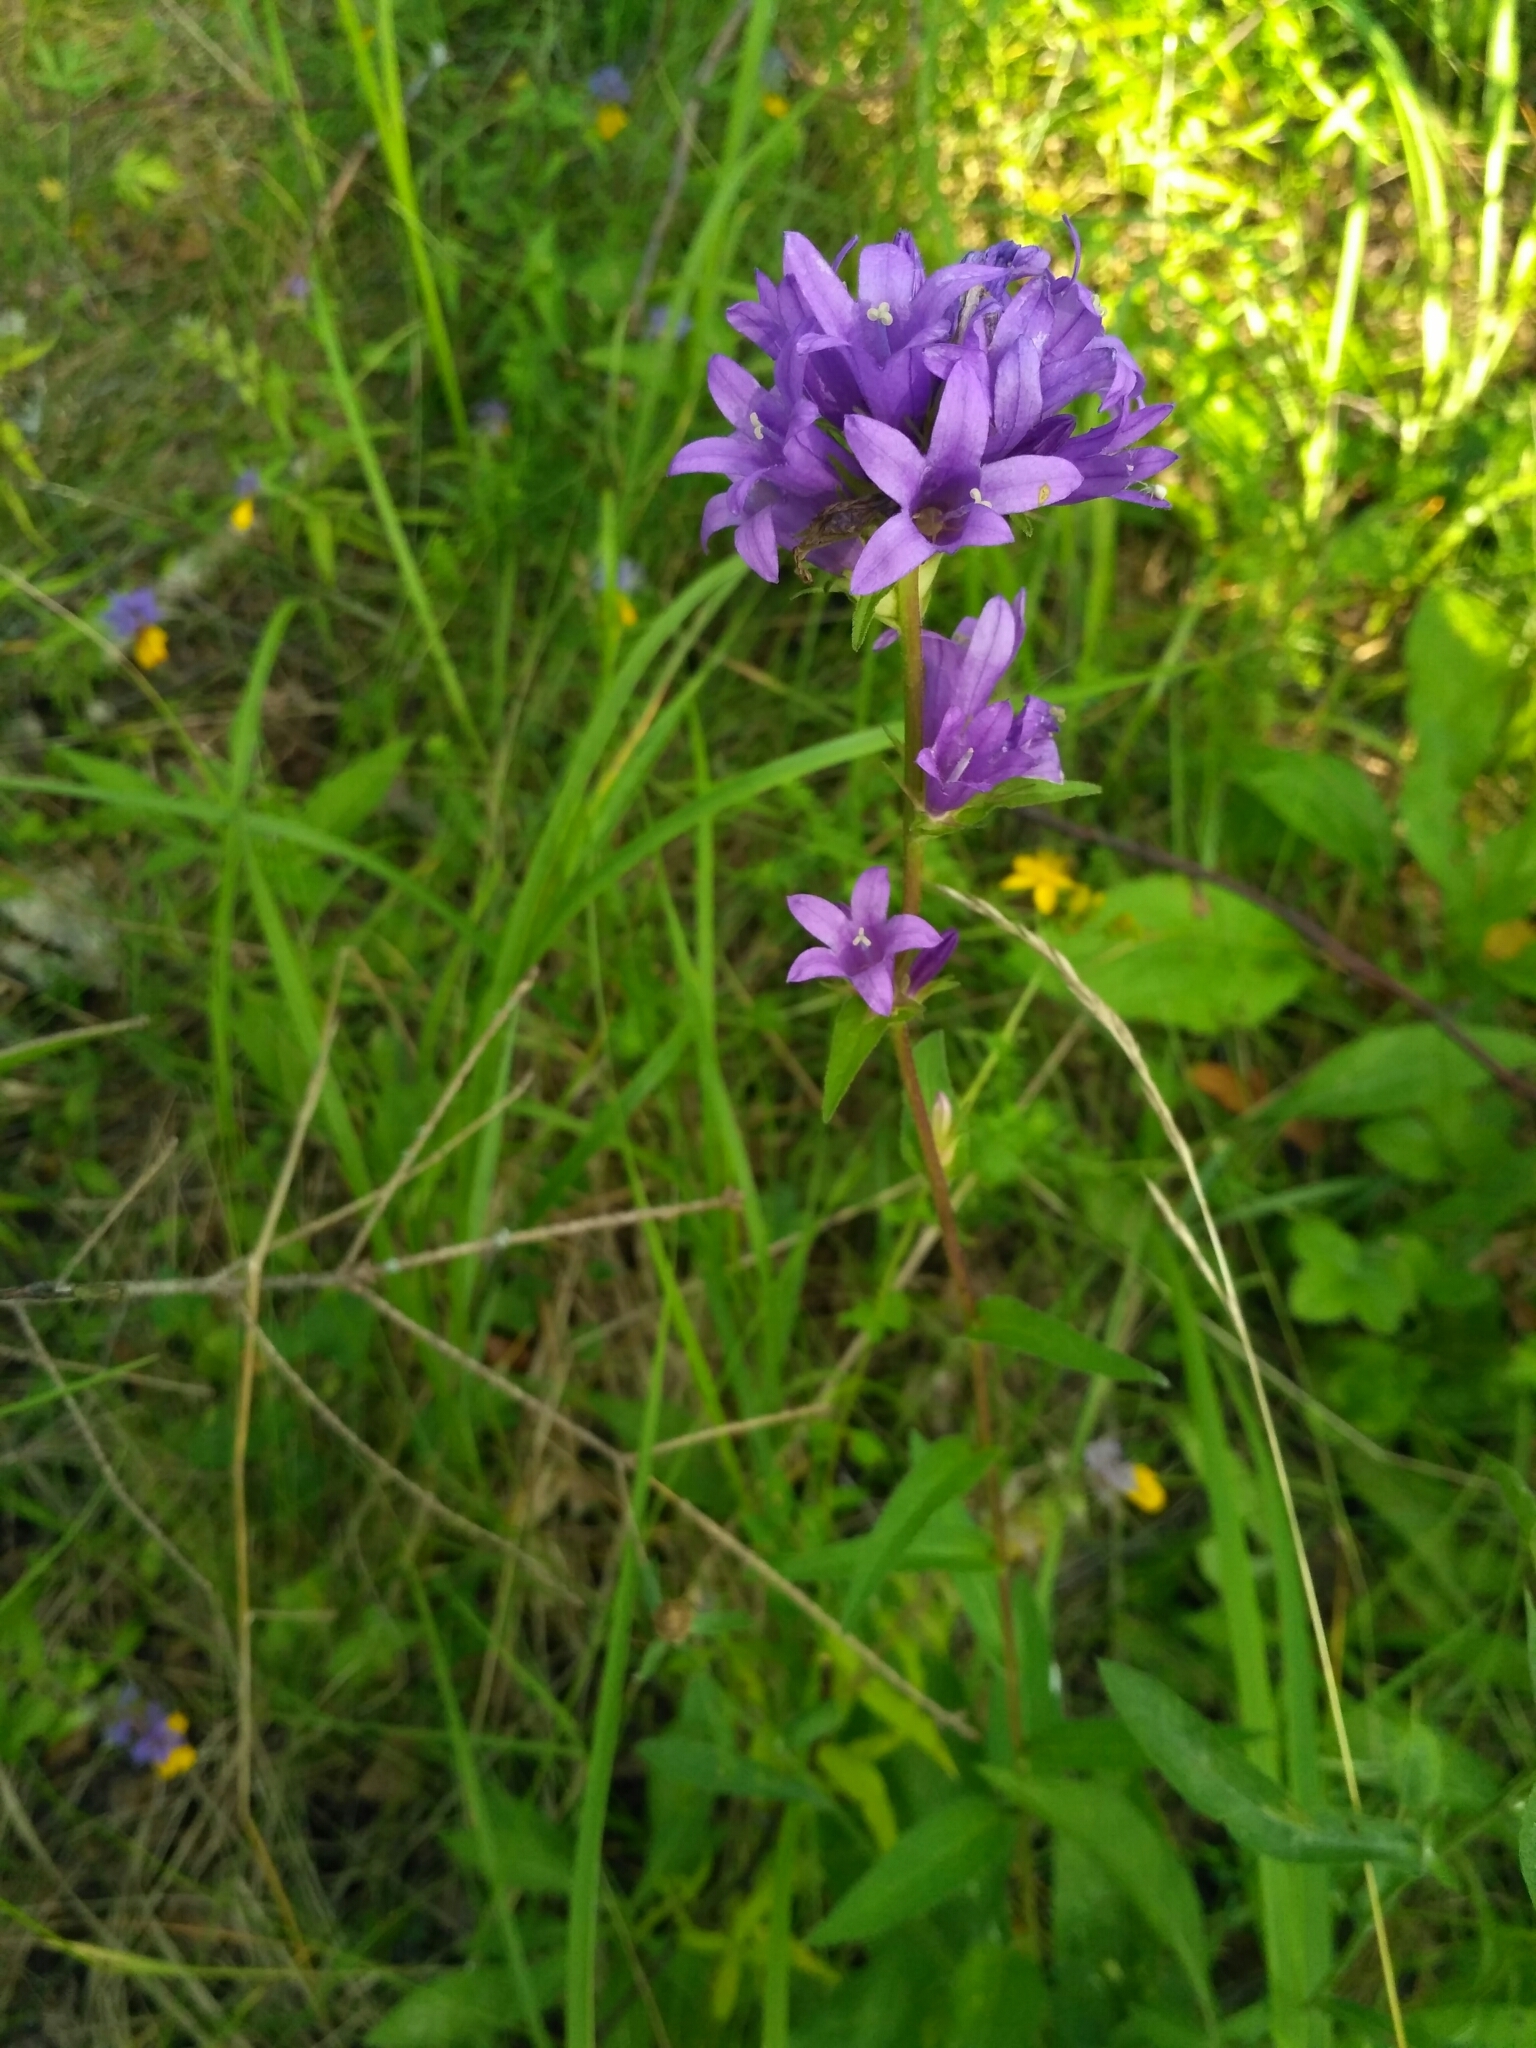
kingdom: Plantae
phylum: Tracheophyta
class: Magnoliopsida
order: Asterales
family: Campanulaceae
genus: Campanula
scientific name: Campanula glomerata
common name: Clustered bellflower
